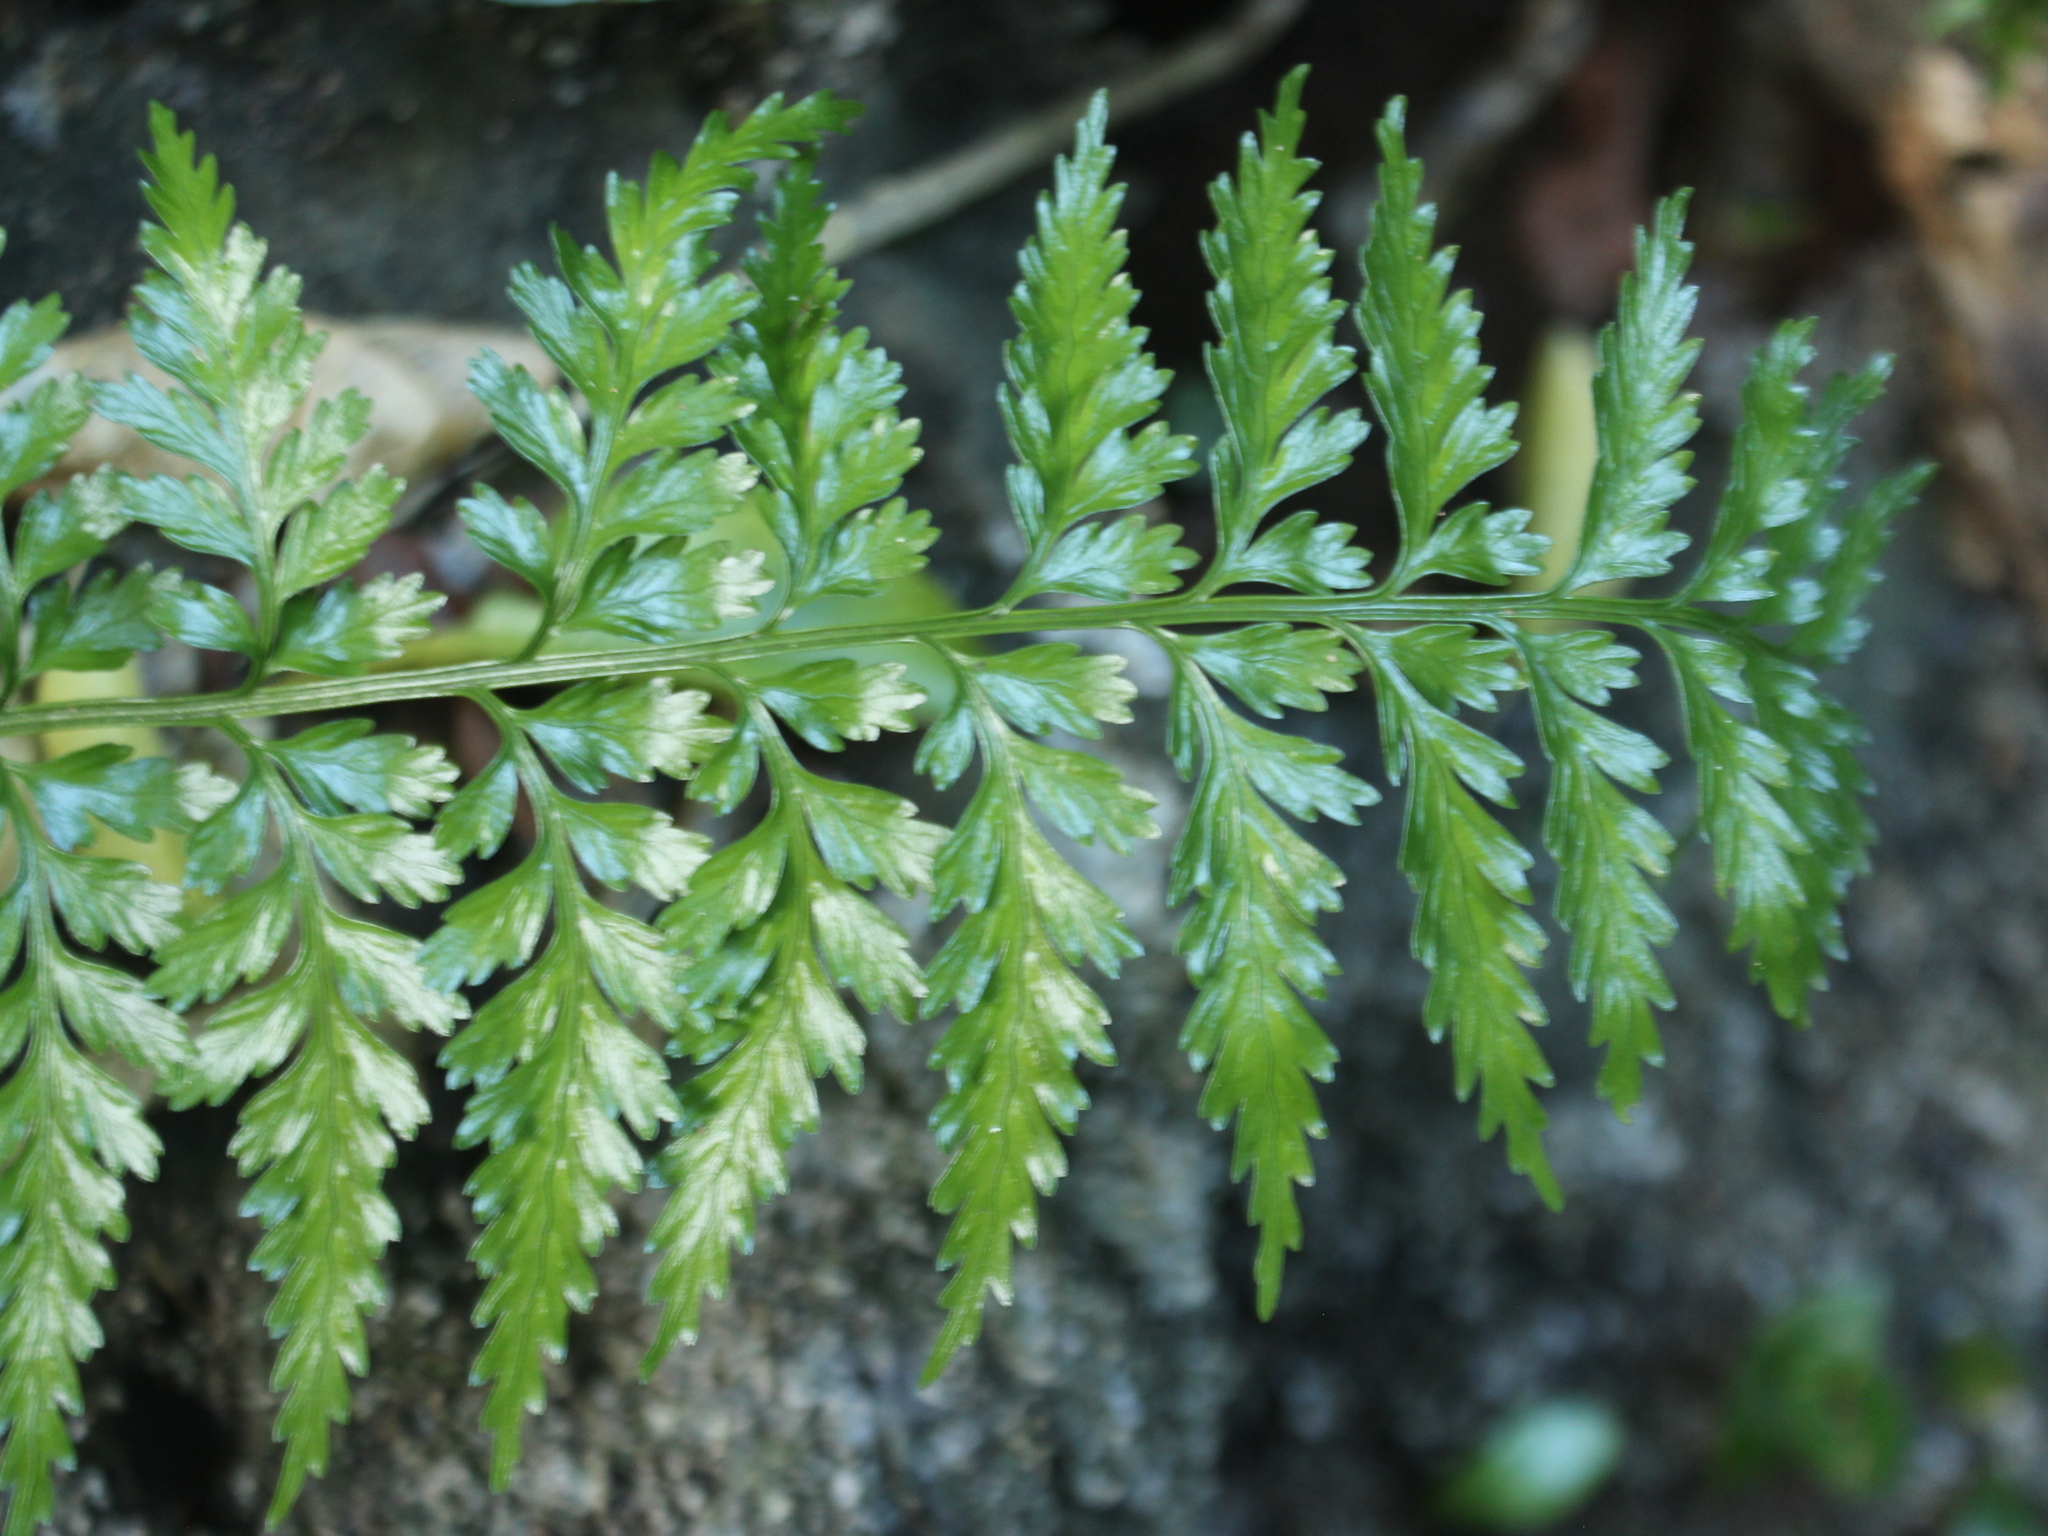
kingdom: Plantae
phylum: Tracheophyta
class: Polypodiopsida
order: Polypodiales
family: Aspleniaceae
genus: Asplenium
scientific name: Asplenium lamprophyllum
